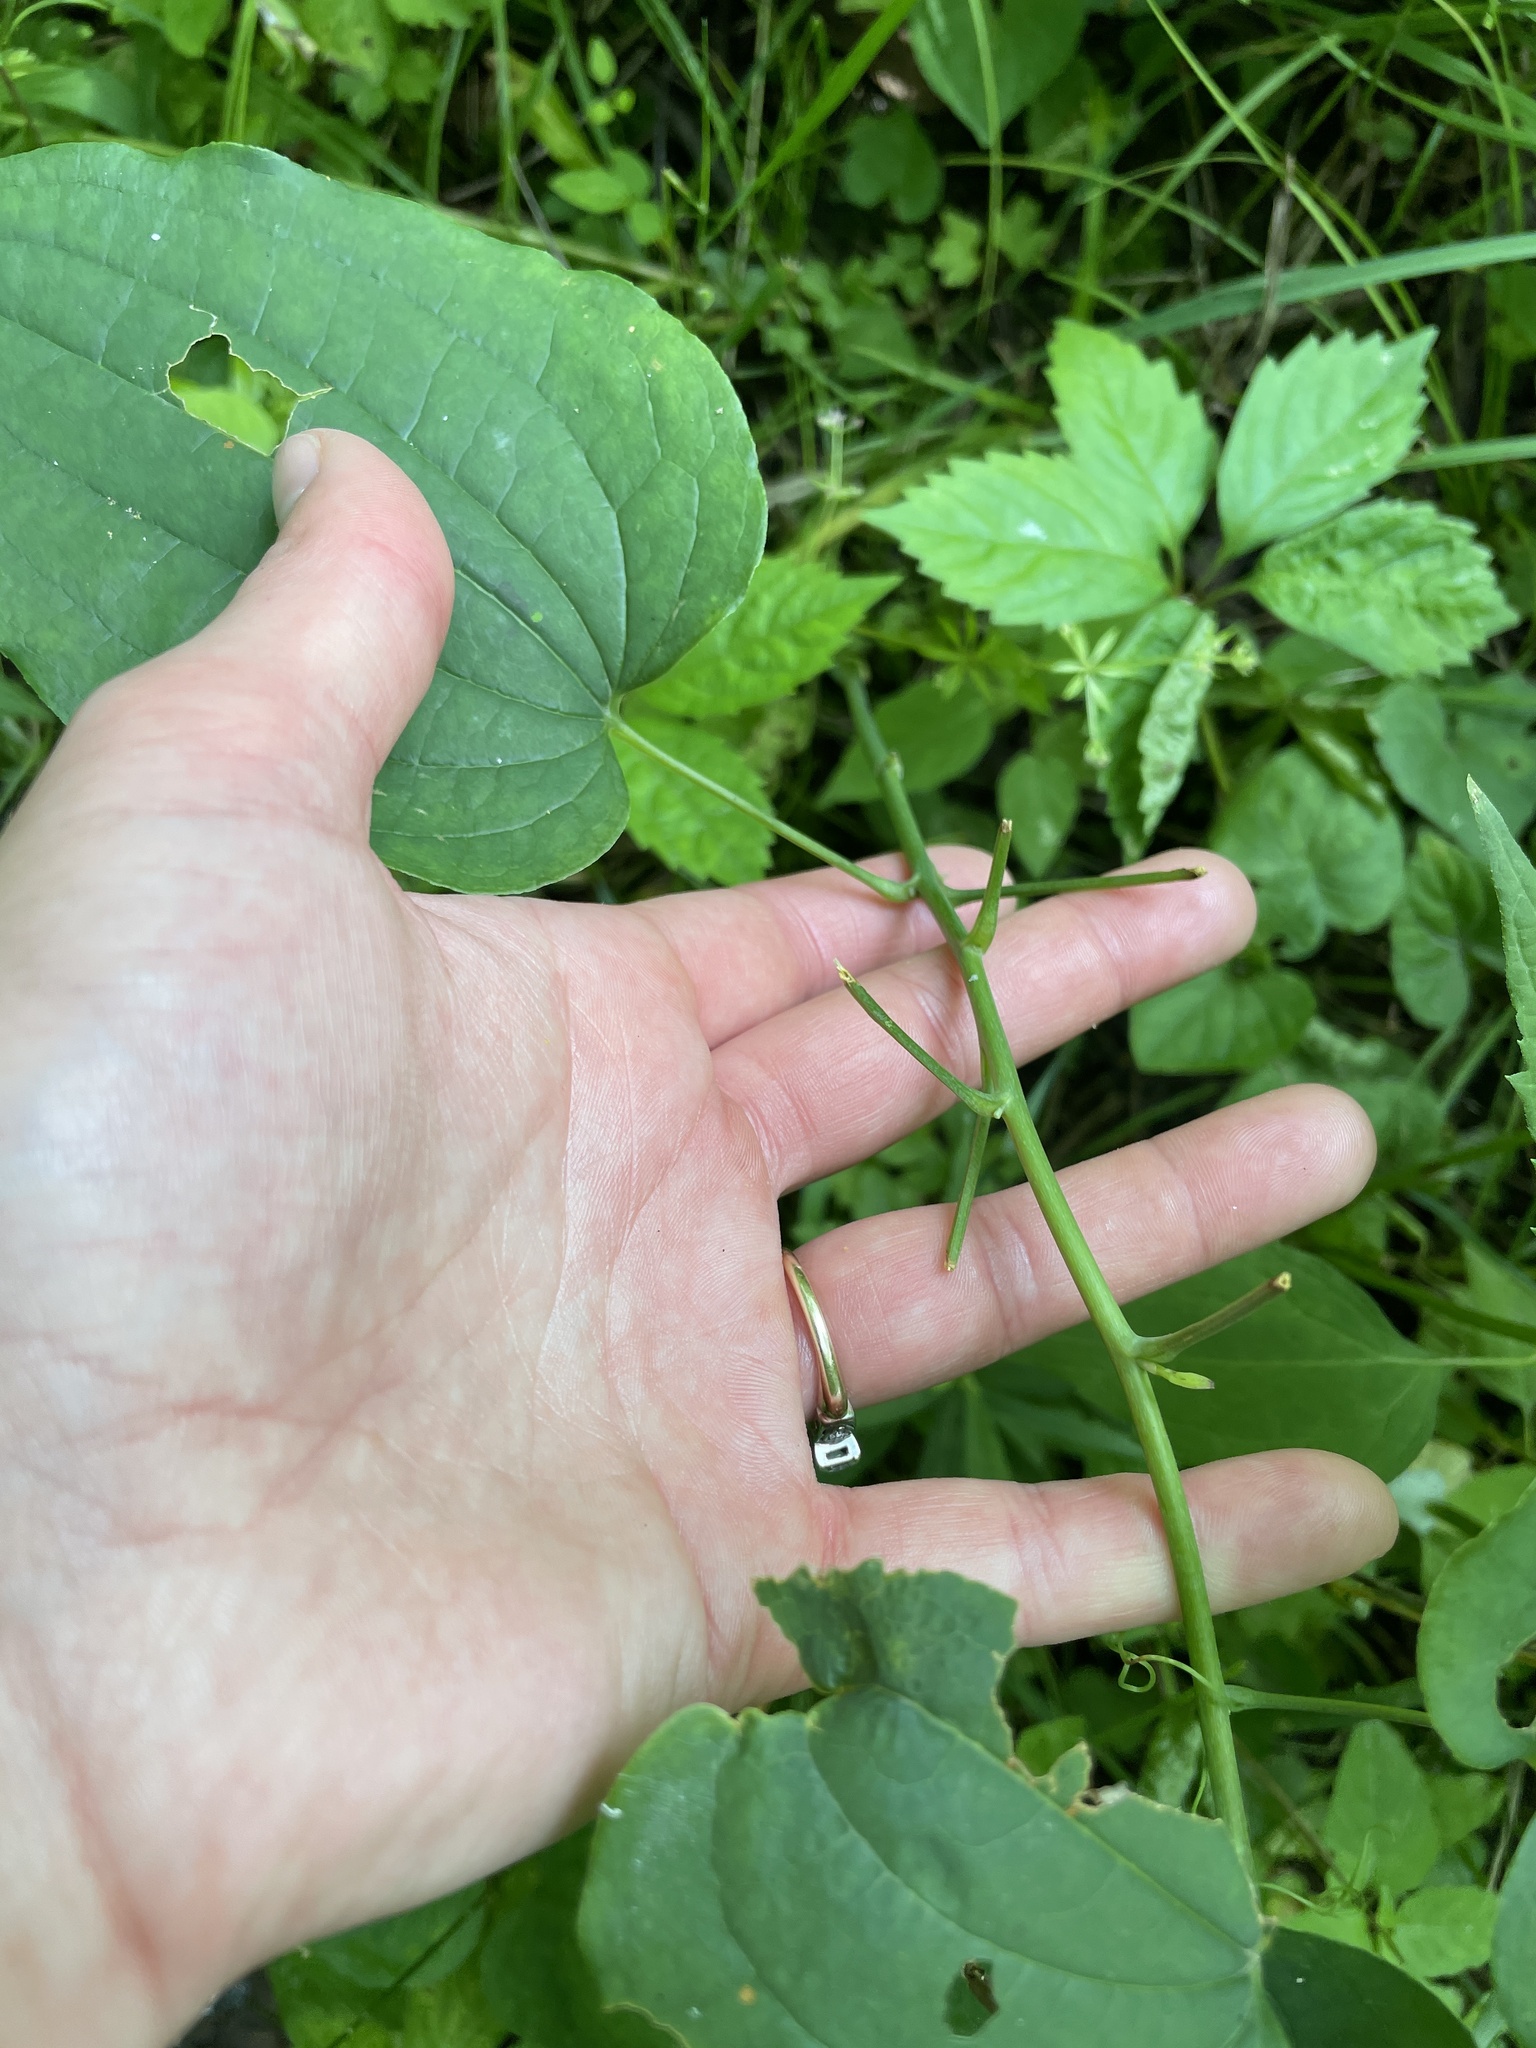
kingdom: Plantae
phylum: Tracheophyta
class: Liliopsida
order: Liliales
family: Smilacaceae
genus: Smilax
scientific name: Smilax herbacea
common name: Jacob's-ladder
